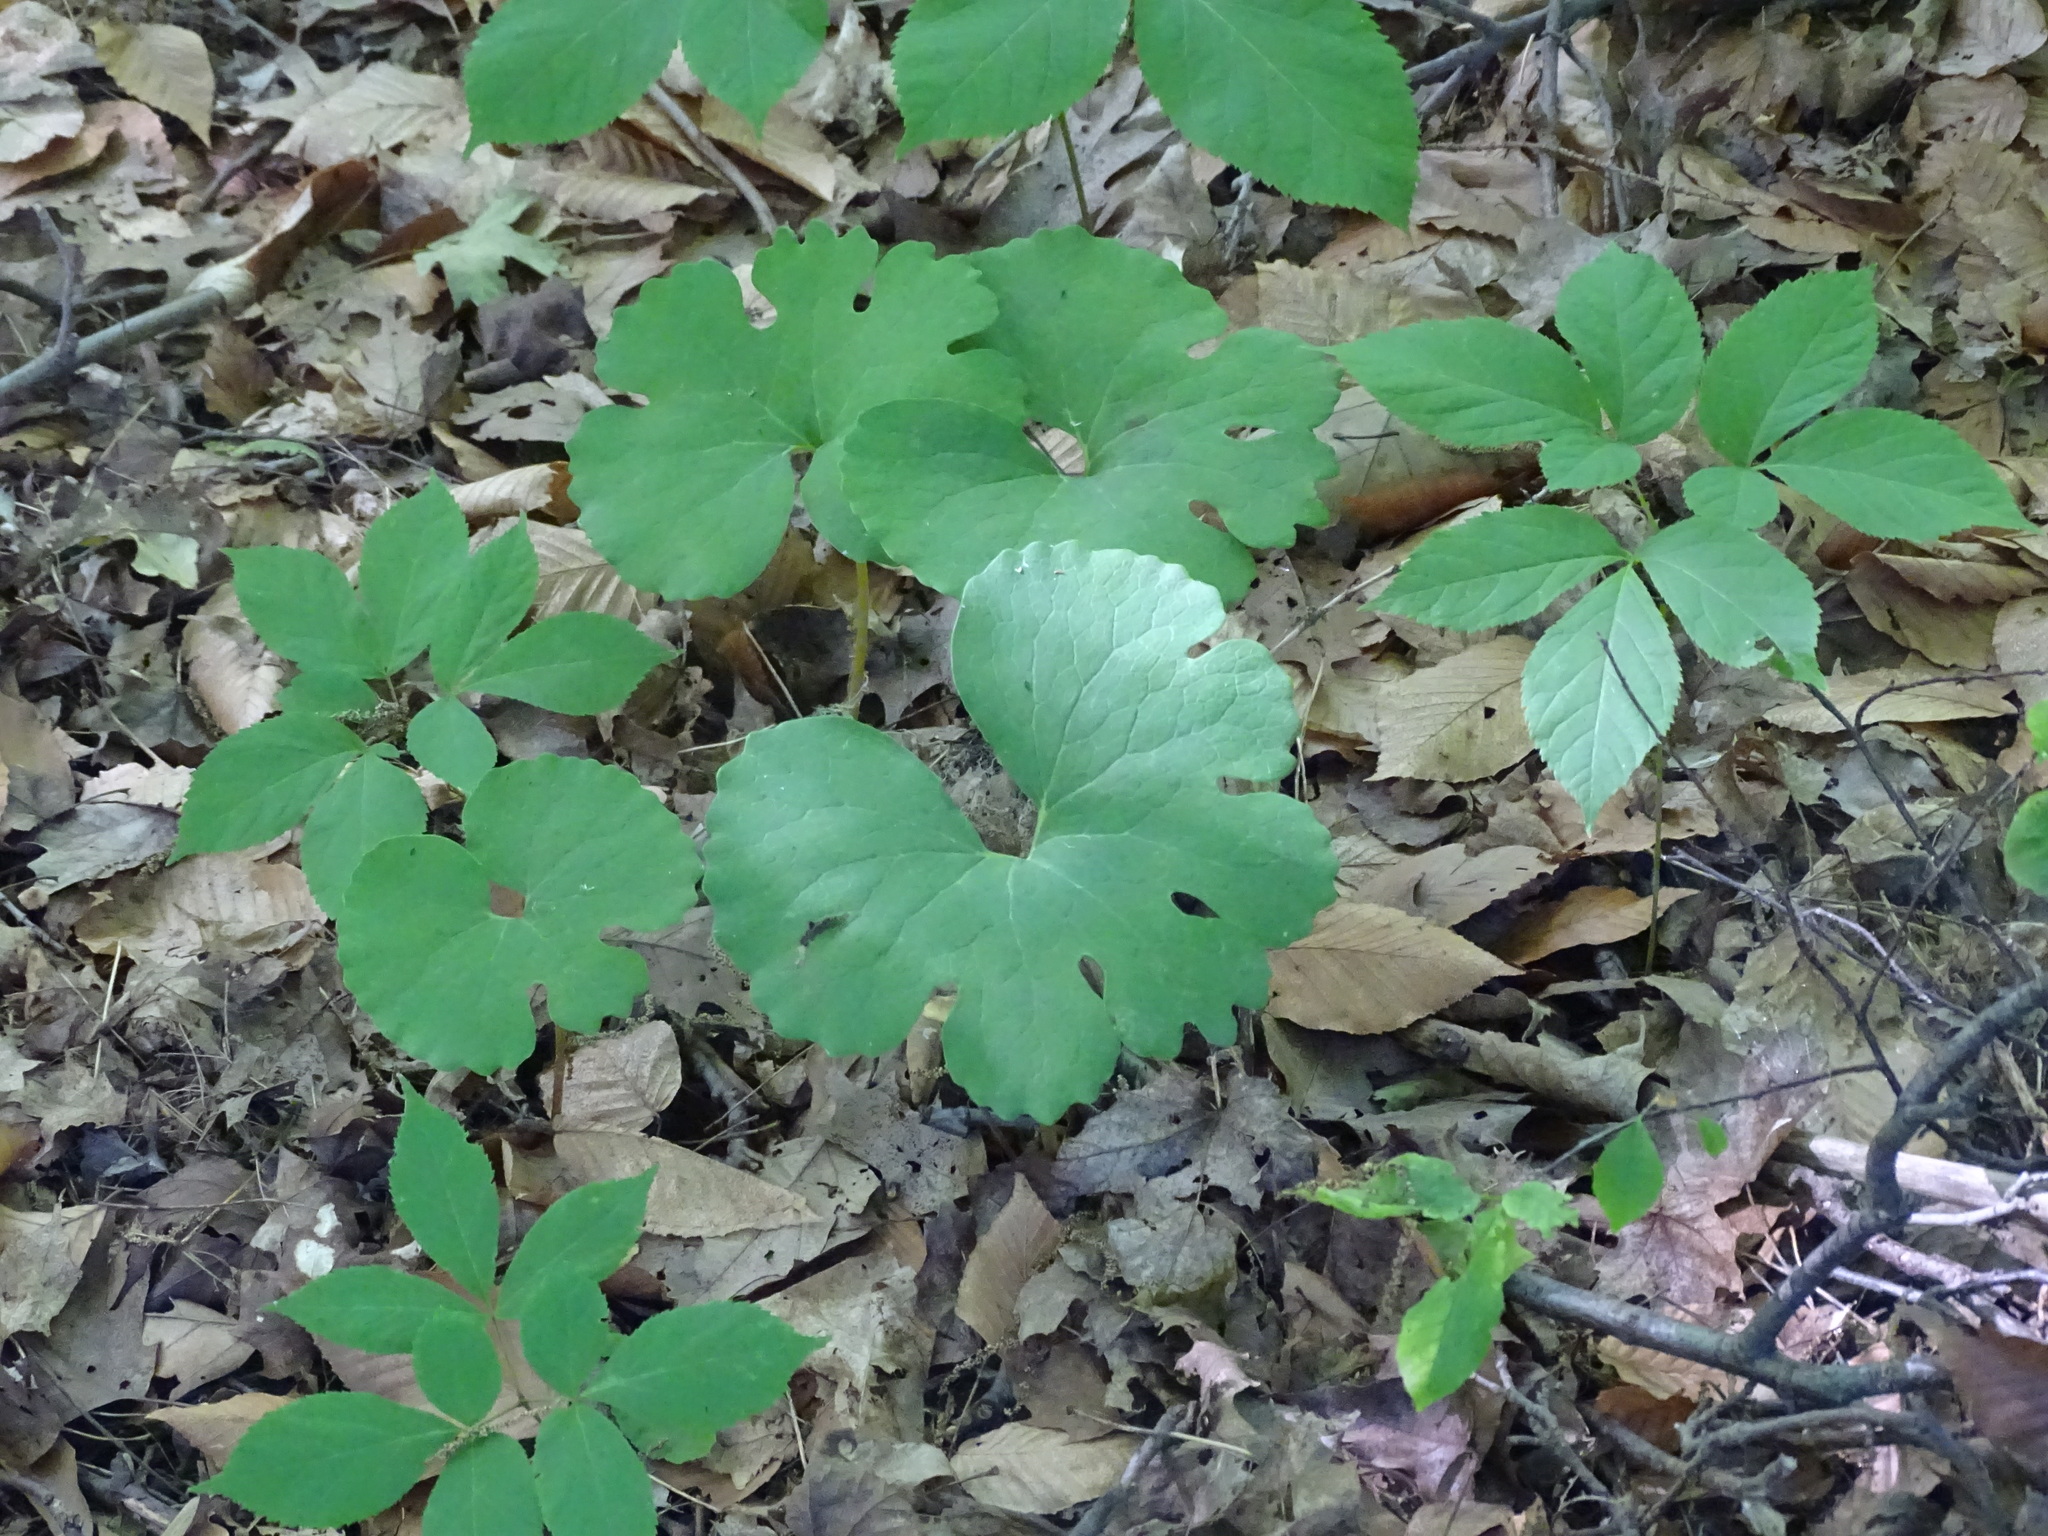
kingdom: Plantae
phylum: Tracheophyta
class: Magnoliopsida
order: Ranunculales
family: Papaveraceae
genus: Sanguinaria
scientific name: Sanguinaria canadensis
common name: Bloodroot
